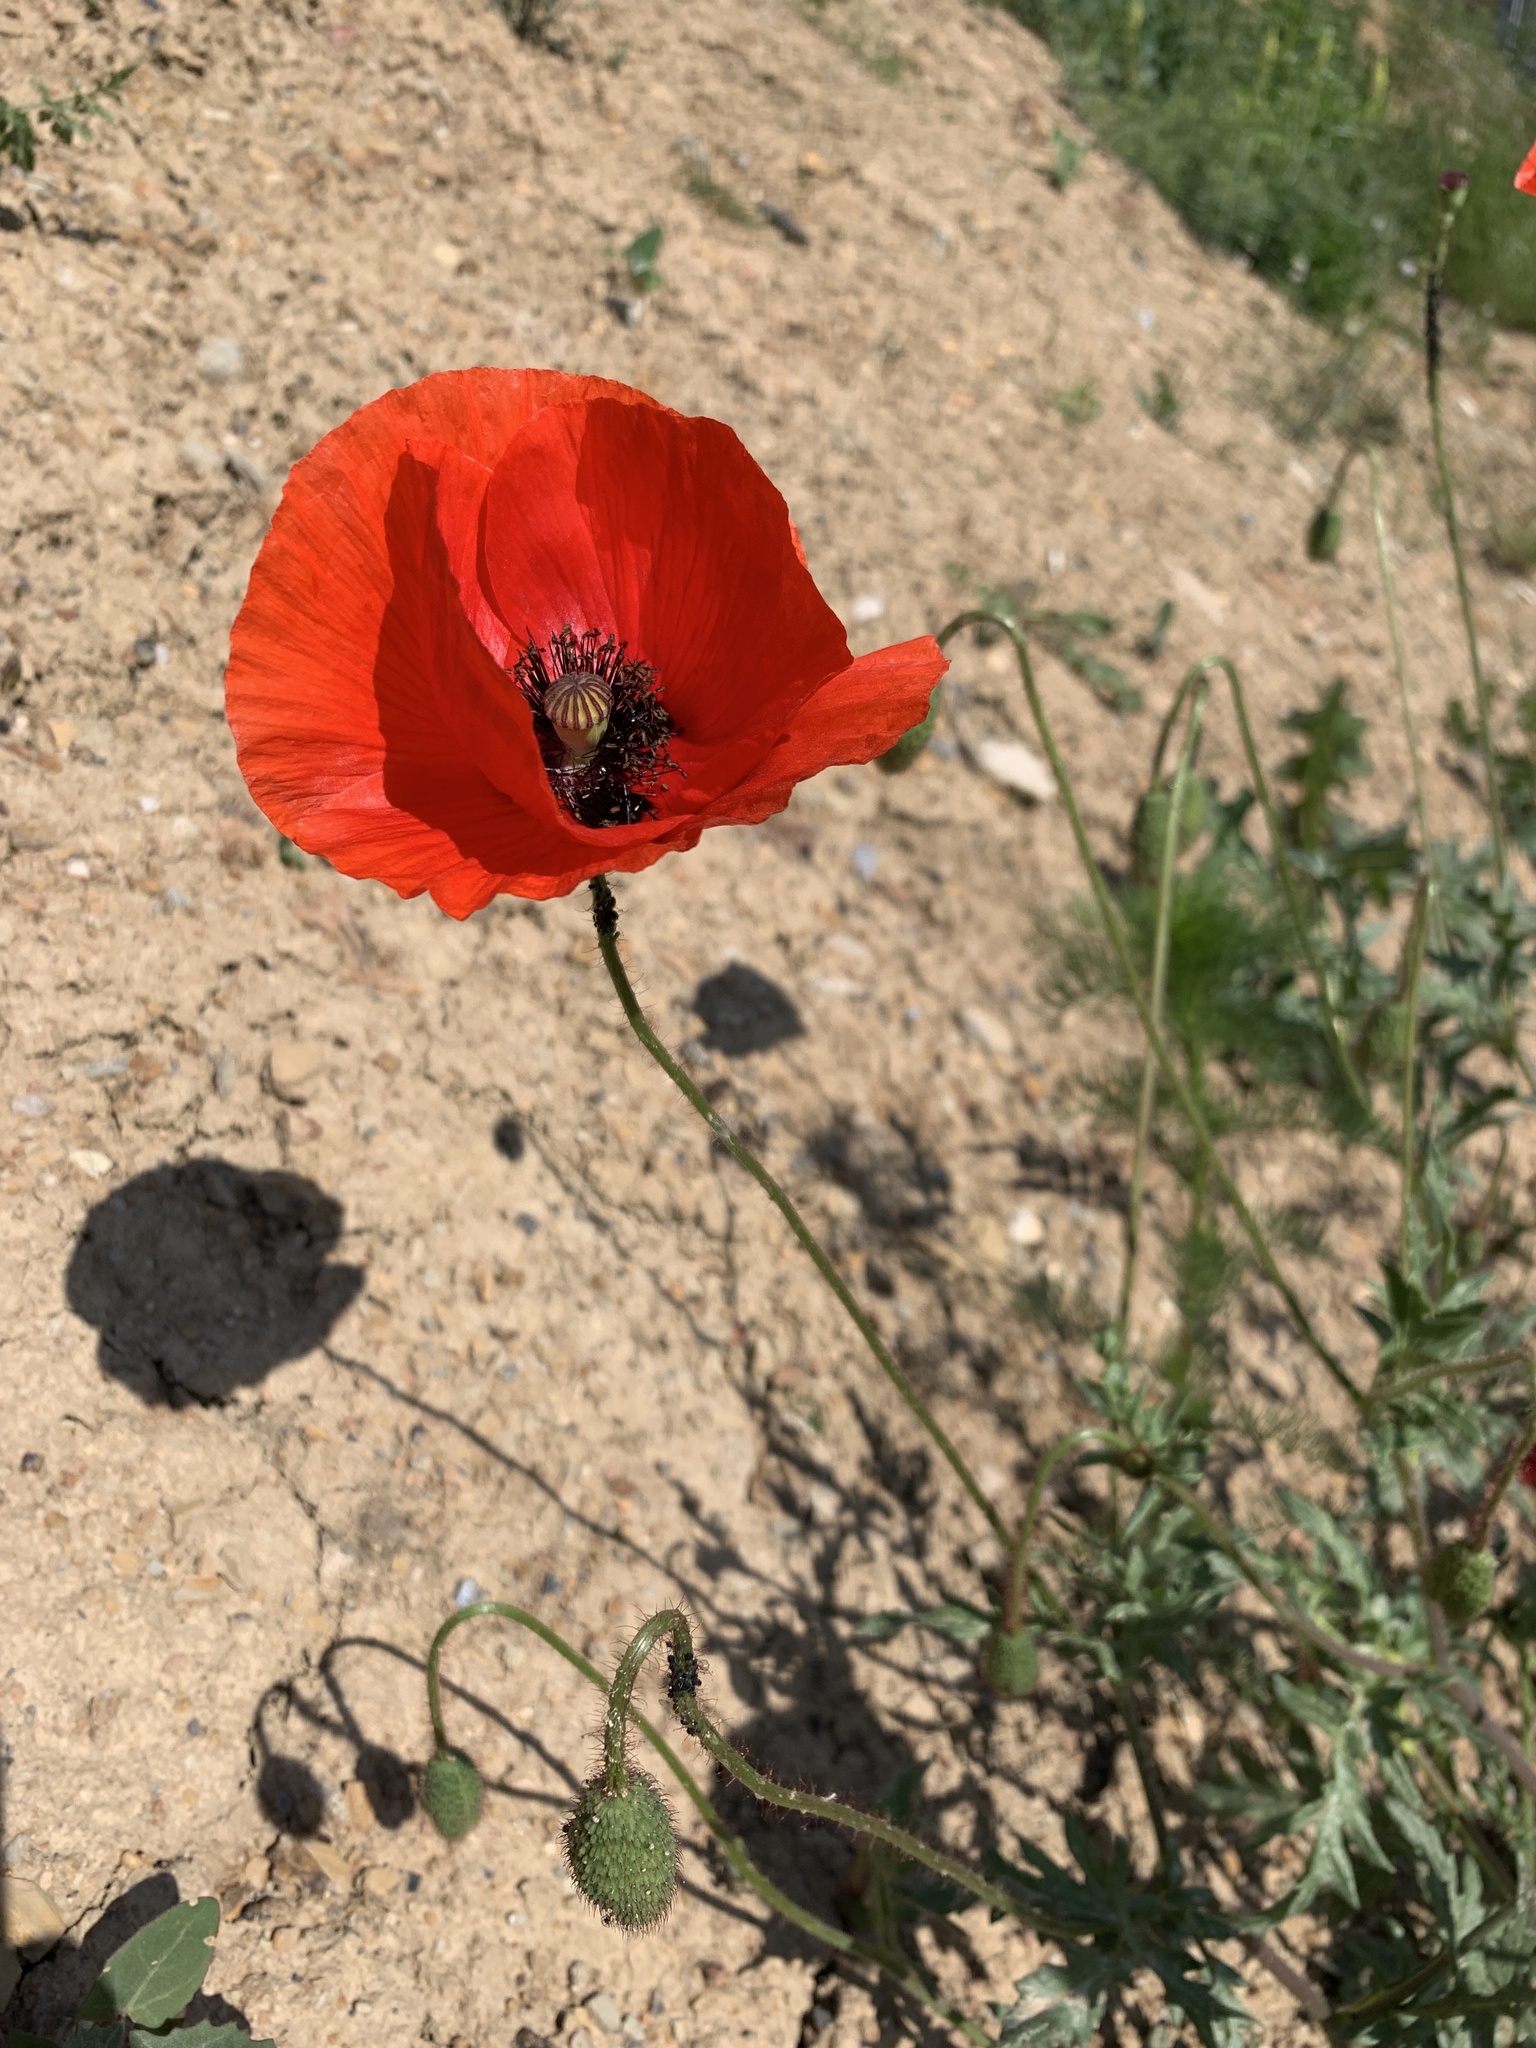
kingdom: Plantae
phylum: Tracheophyta
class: Magnoliopsida
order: Ranunculales
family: Papaveraceae
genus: Papaver
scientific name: Papaver rhoeas
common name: Corn poppy
